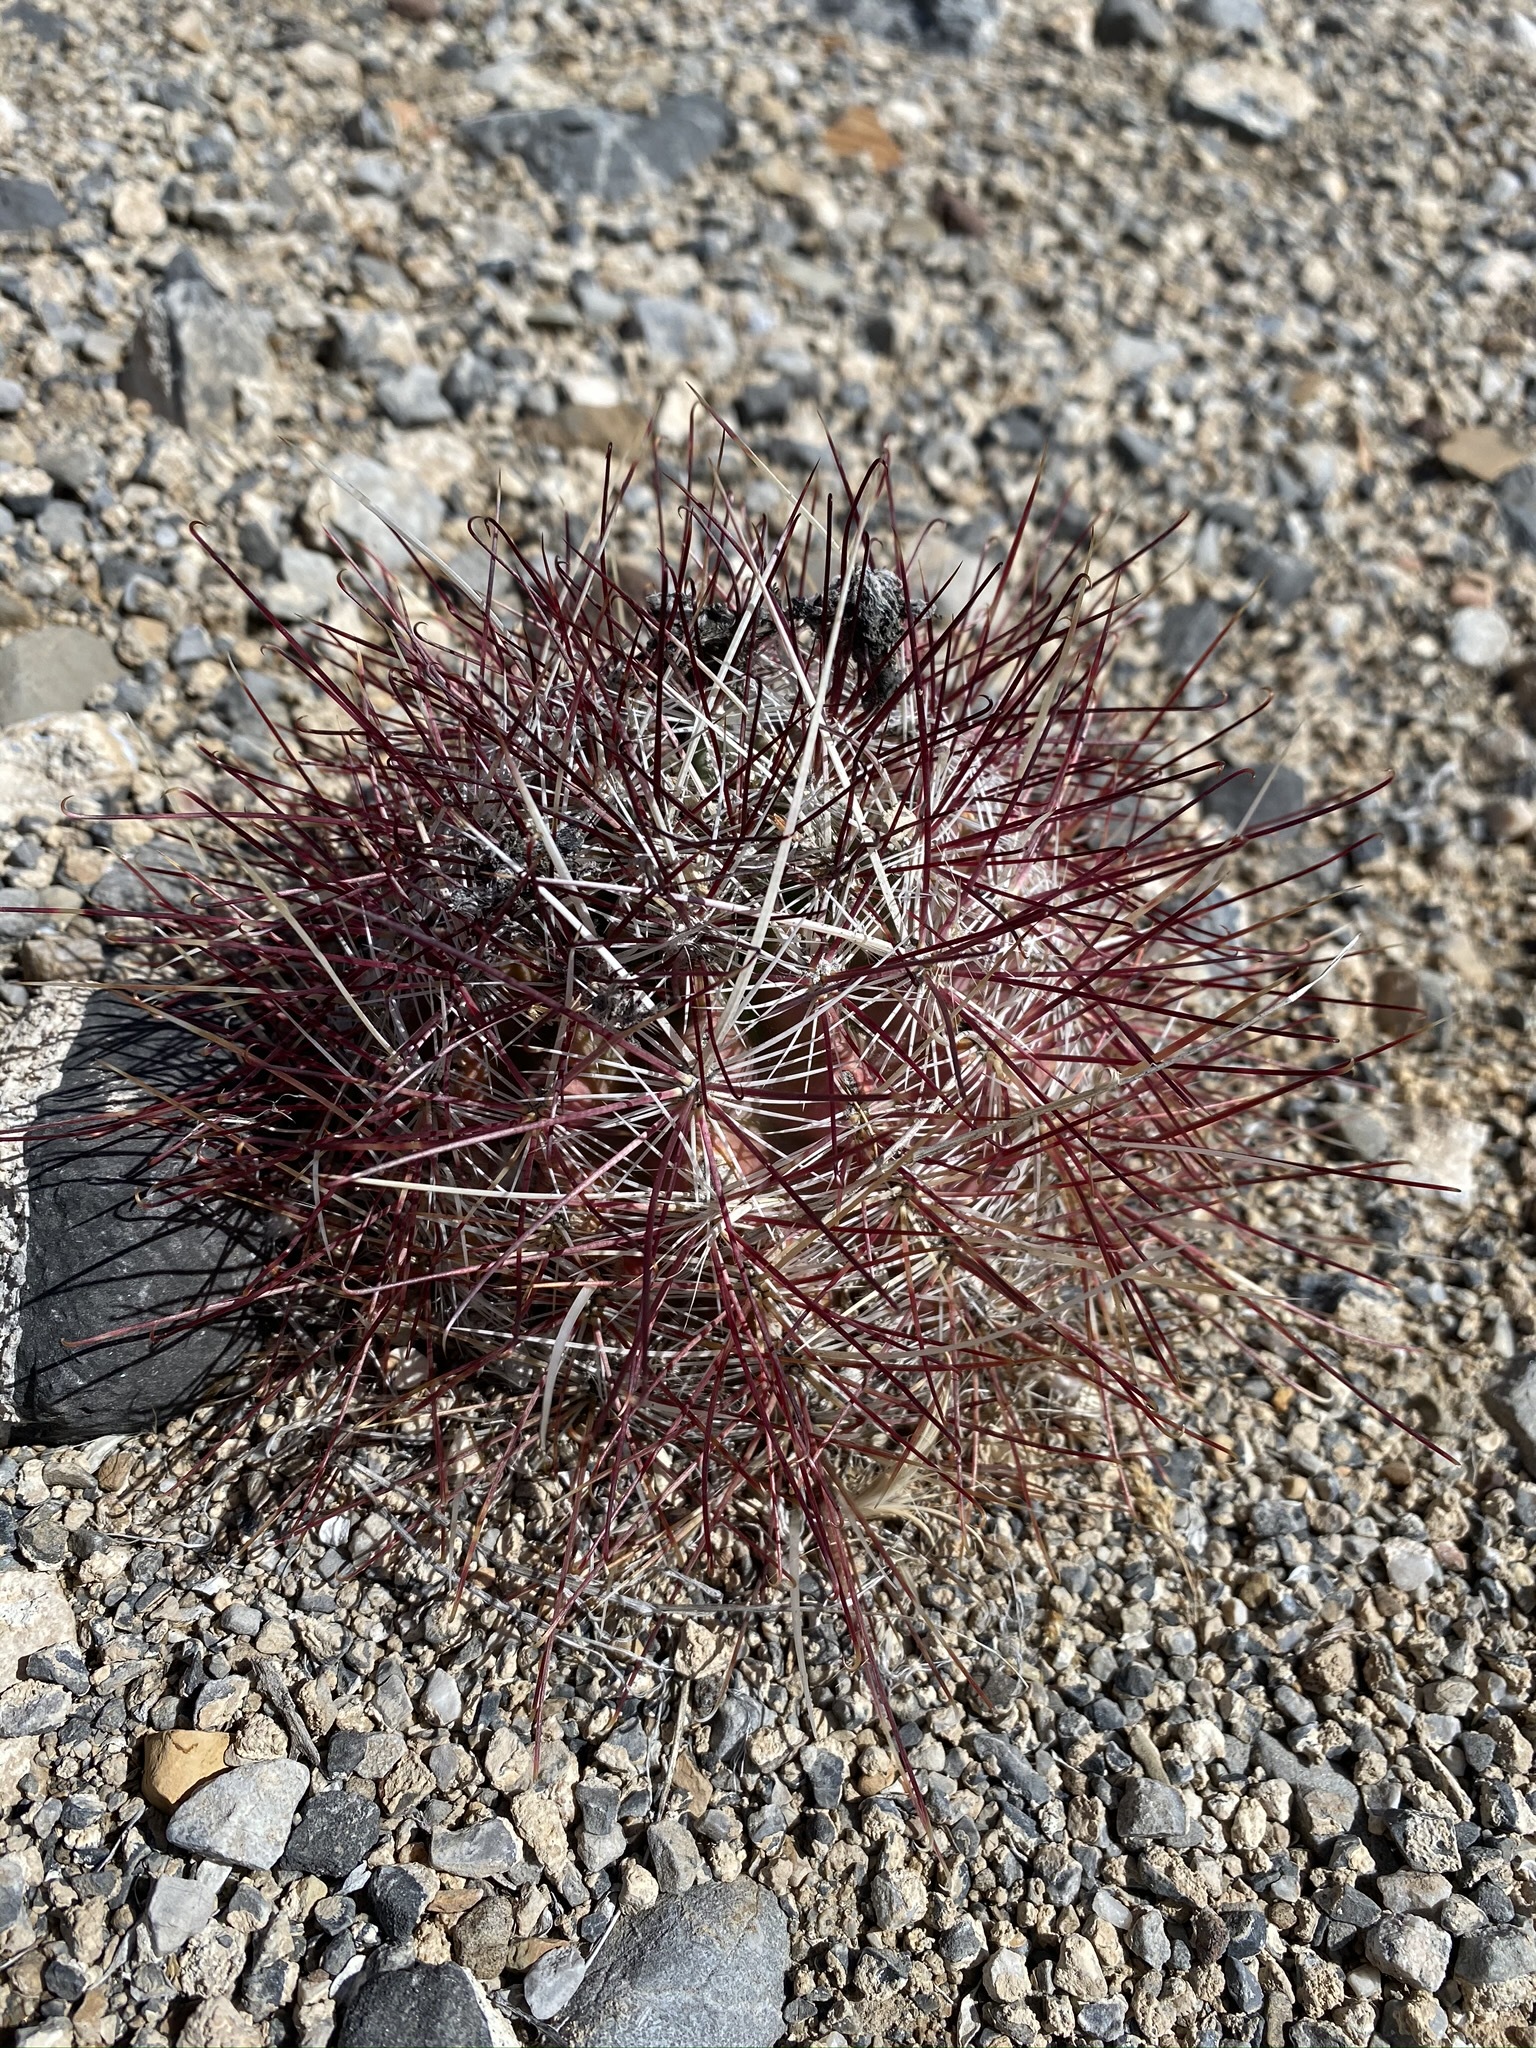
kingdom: Plantae
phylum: Tracheophyta
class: Magnoliopsida
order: Caryophyllales
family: Cactaceae
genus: Sclerocactus
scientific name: Sclerocactus polyancistrus
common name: Mohave fishhook cactus
